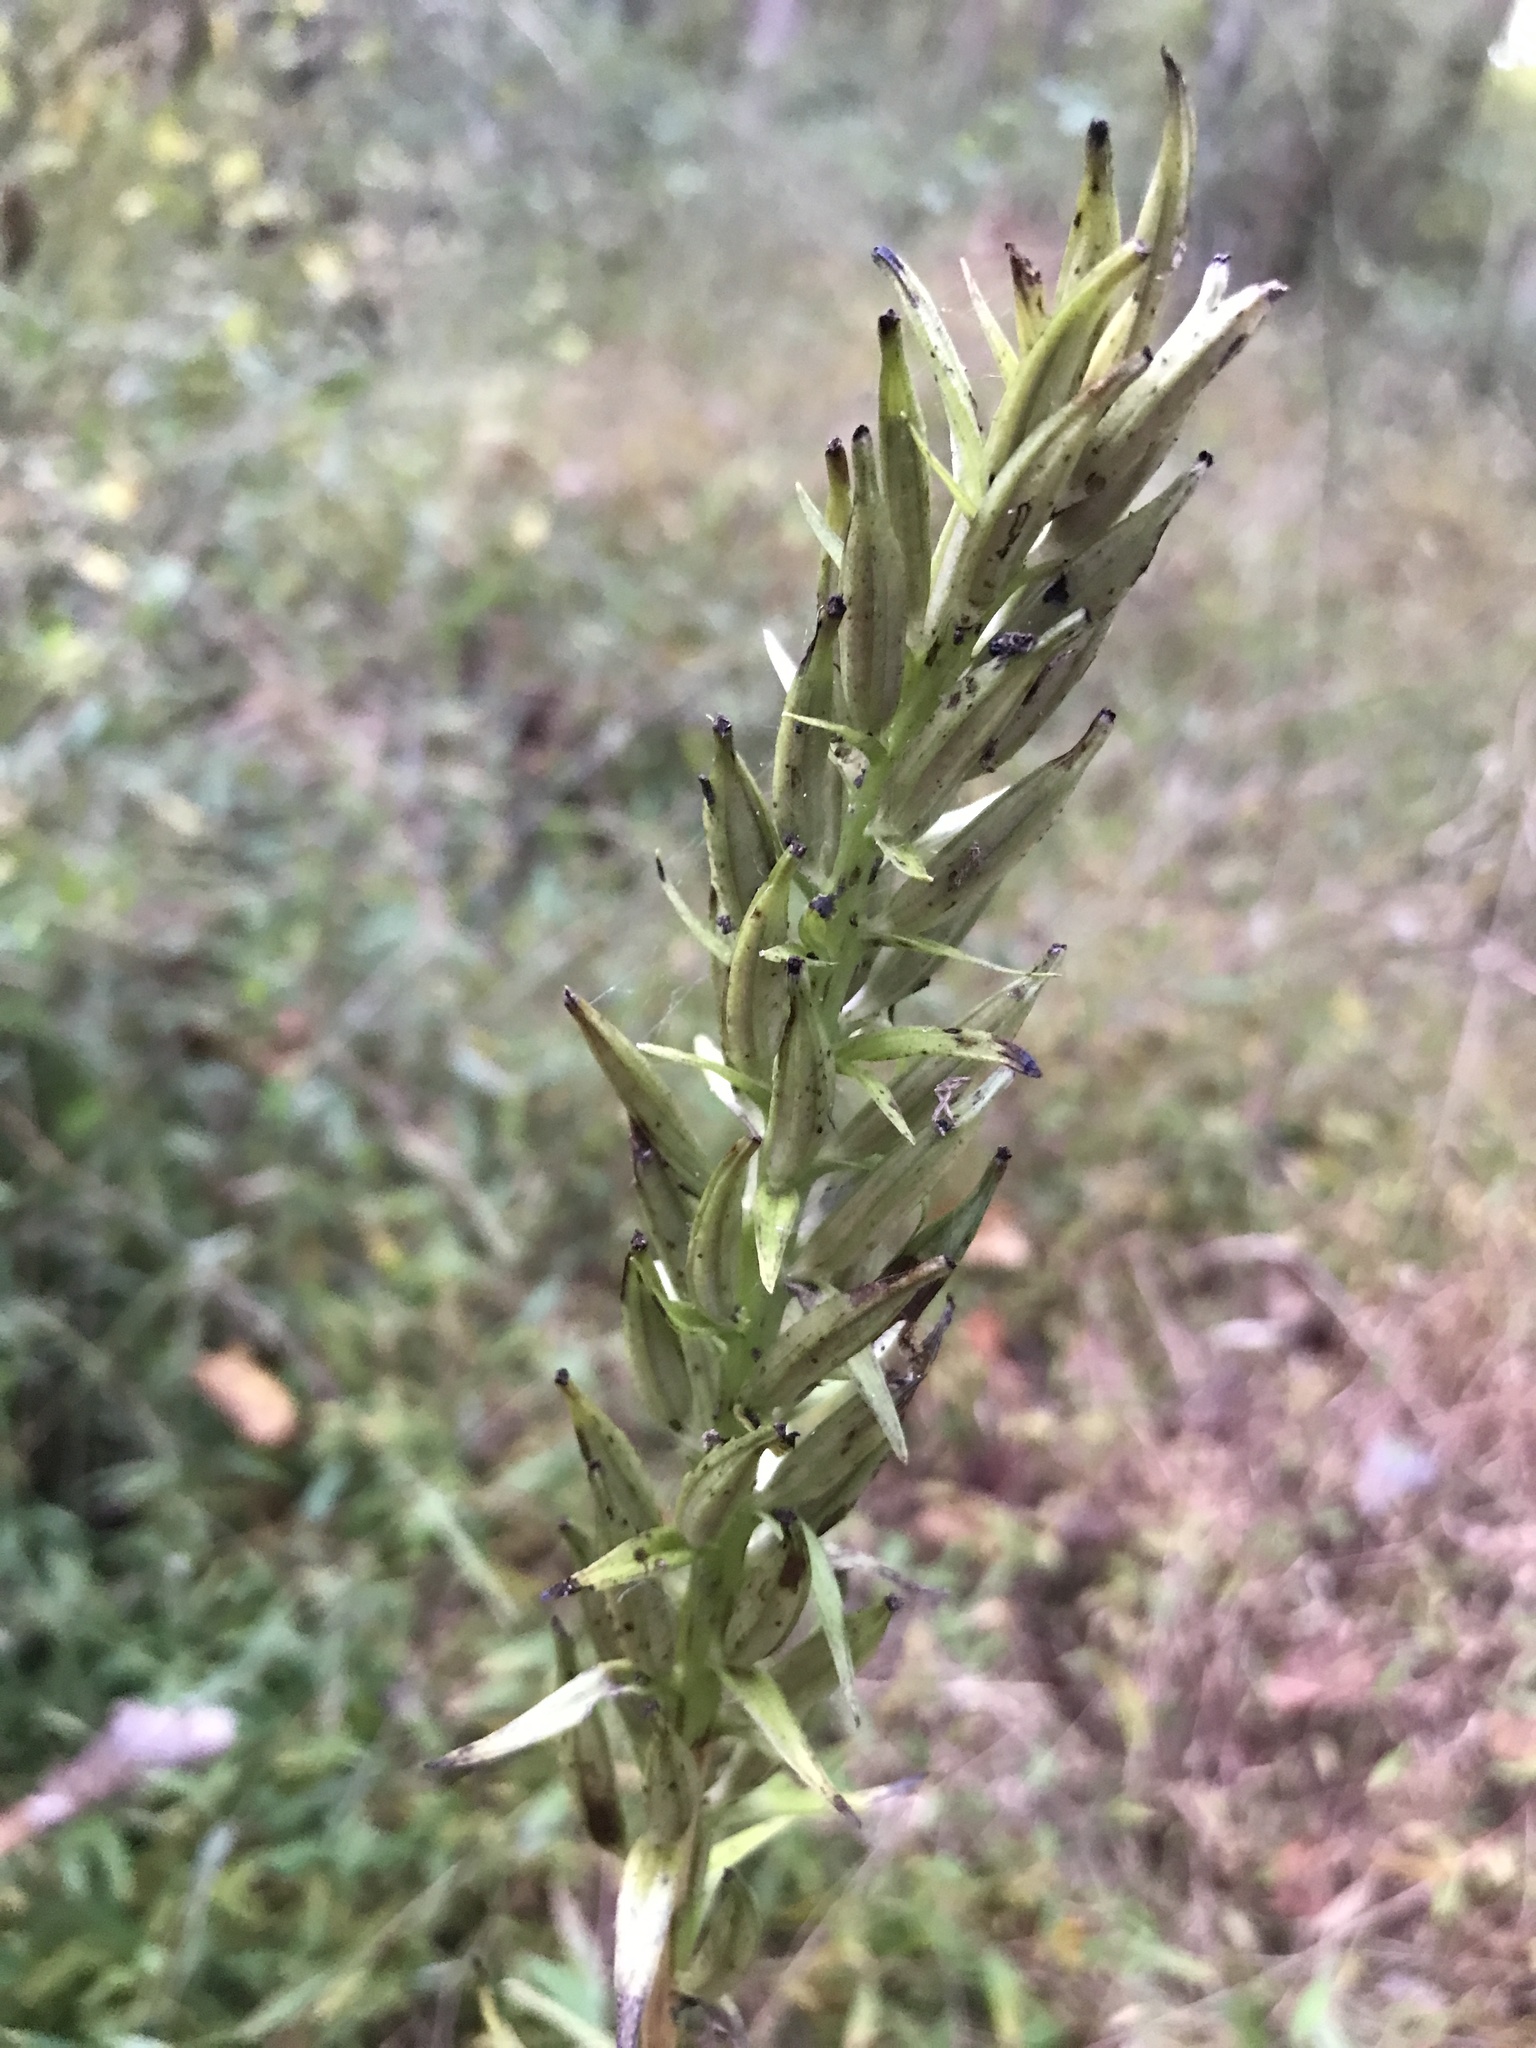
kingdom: Plantae
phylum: Tracheophyta
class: Magnoliopsida
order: Myrtales
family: Onagraceae
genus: Oenothera
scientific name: Oenothera biennis
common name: Common evening-primrose
